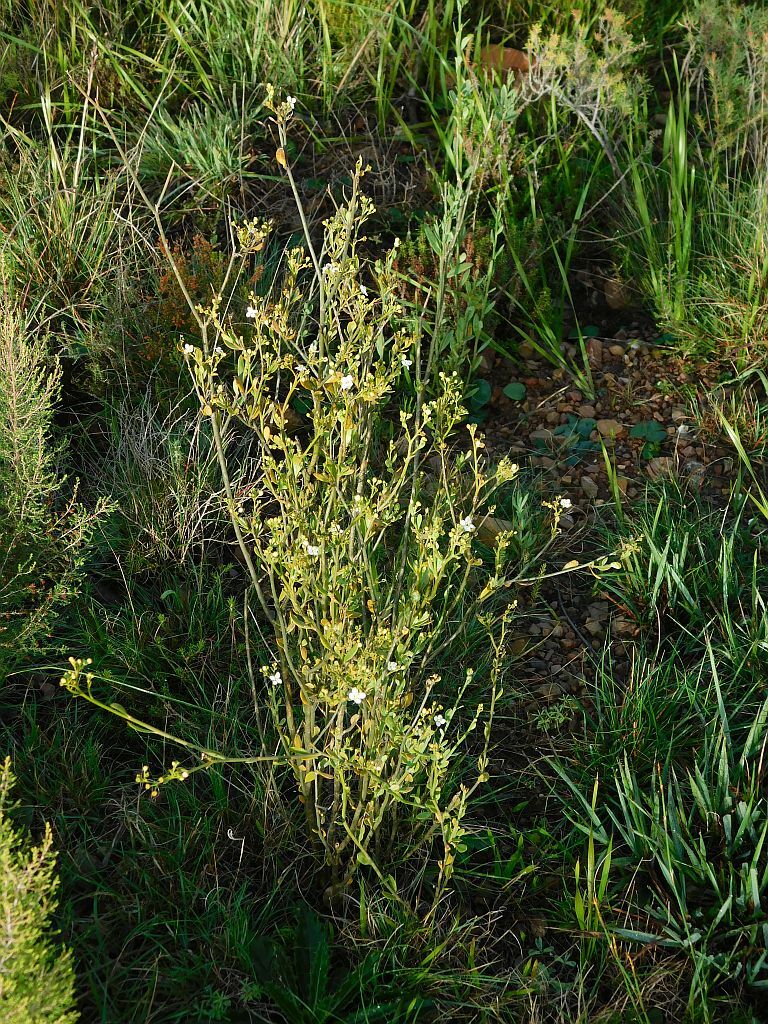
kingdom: Plantae
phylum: Tracheophyta
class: Magnoliopsida
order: Solanales
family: Montiniaceae
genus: Montinia
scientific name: Montinia caryophyllacea
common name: Wild clove-bush
